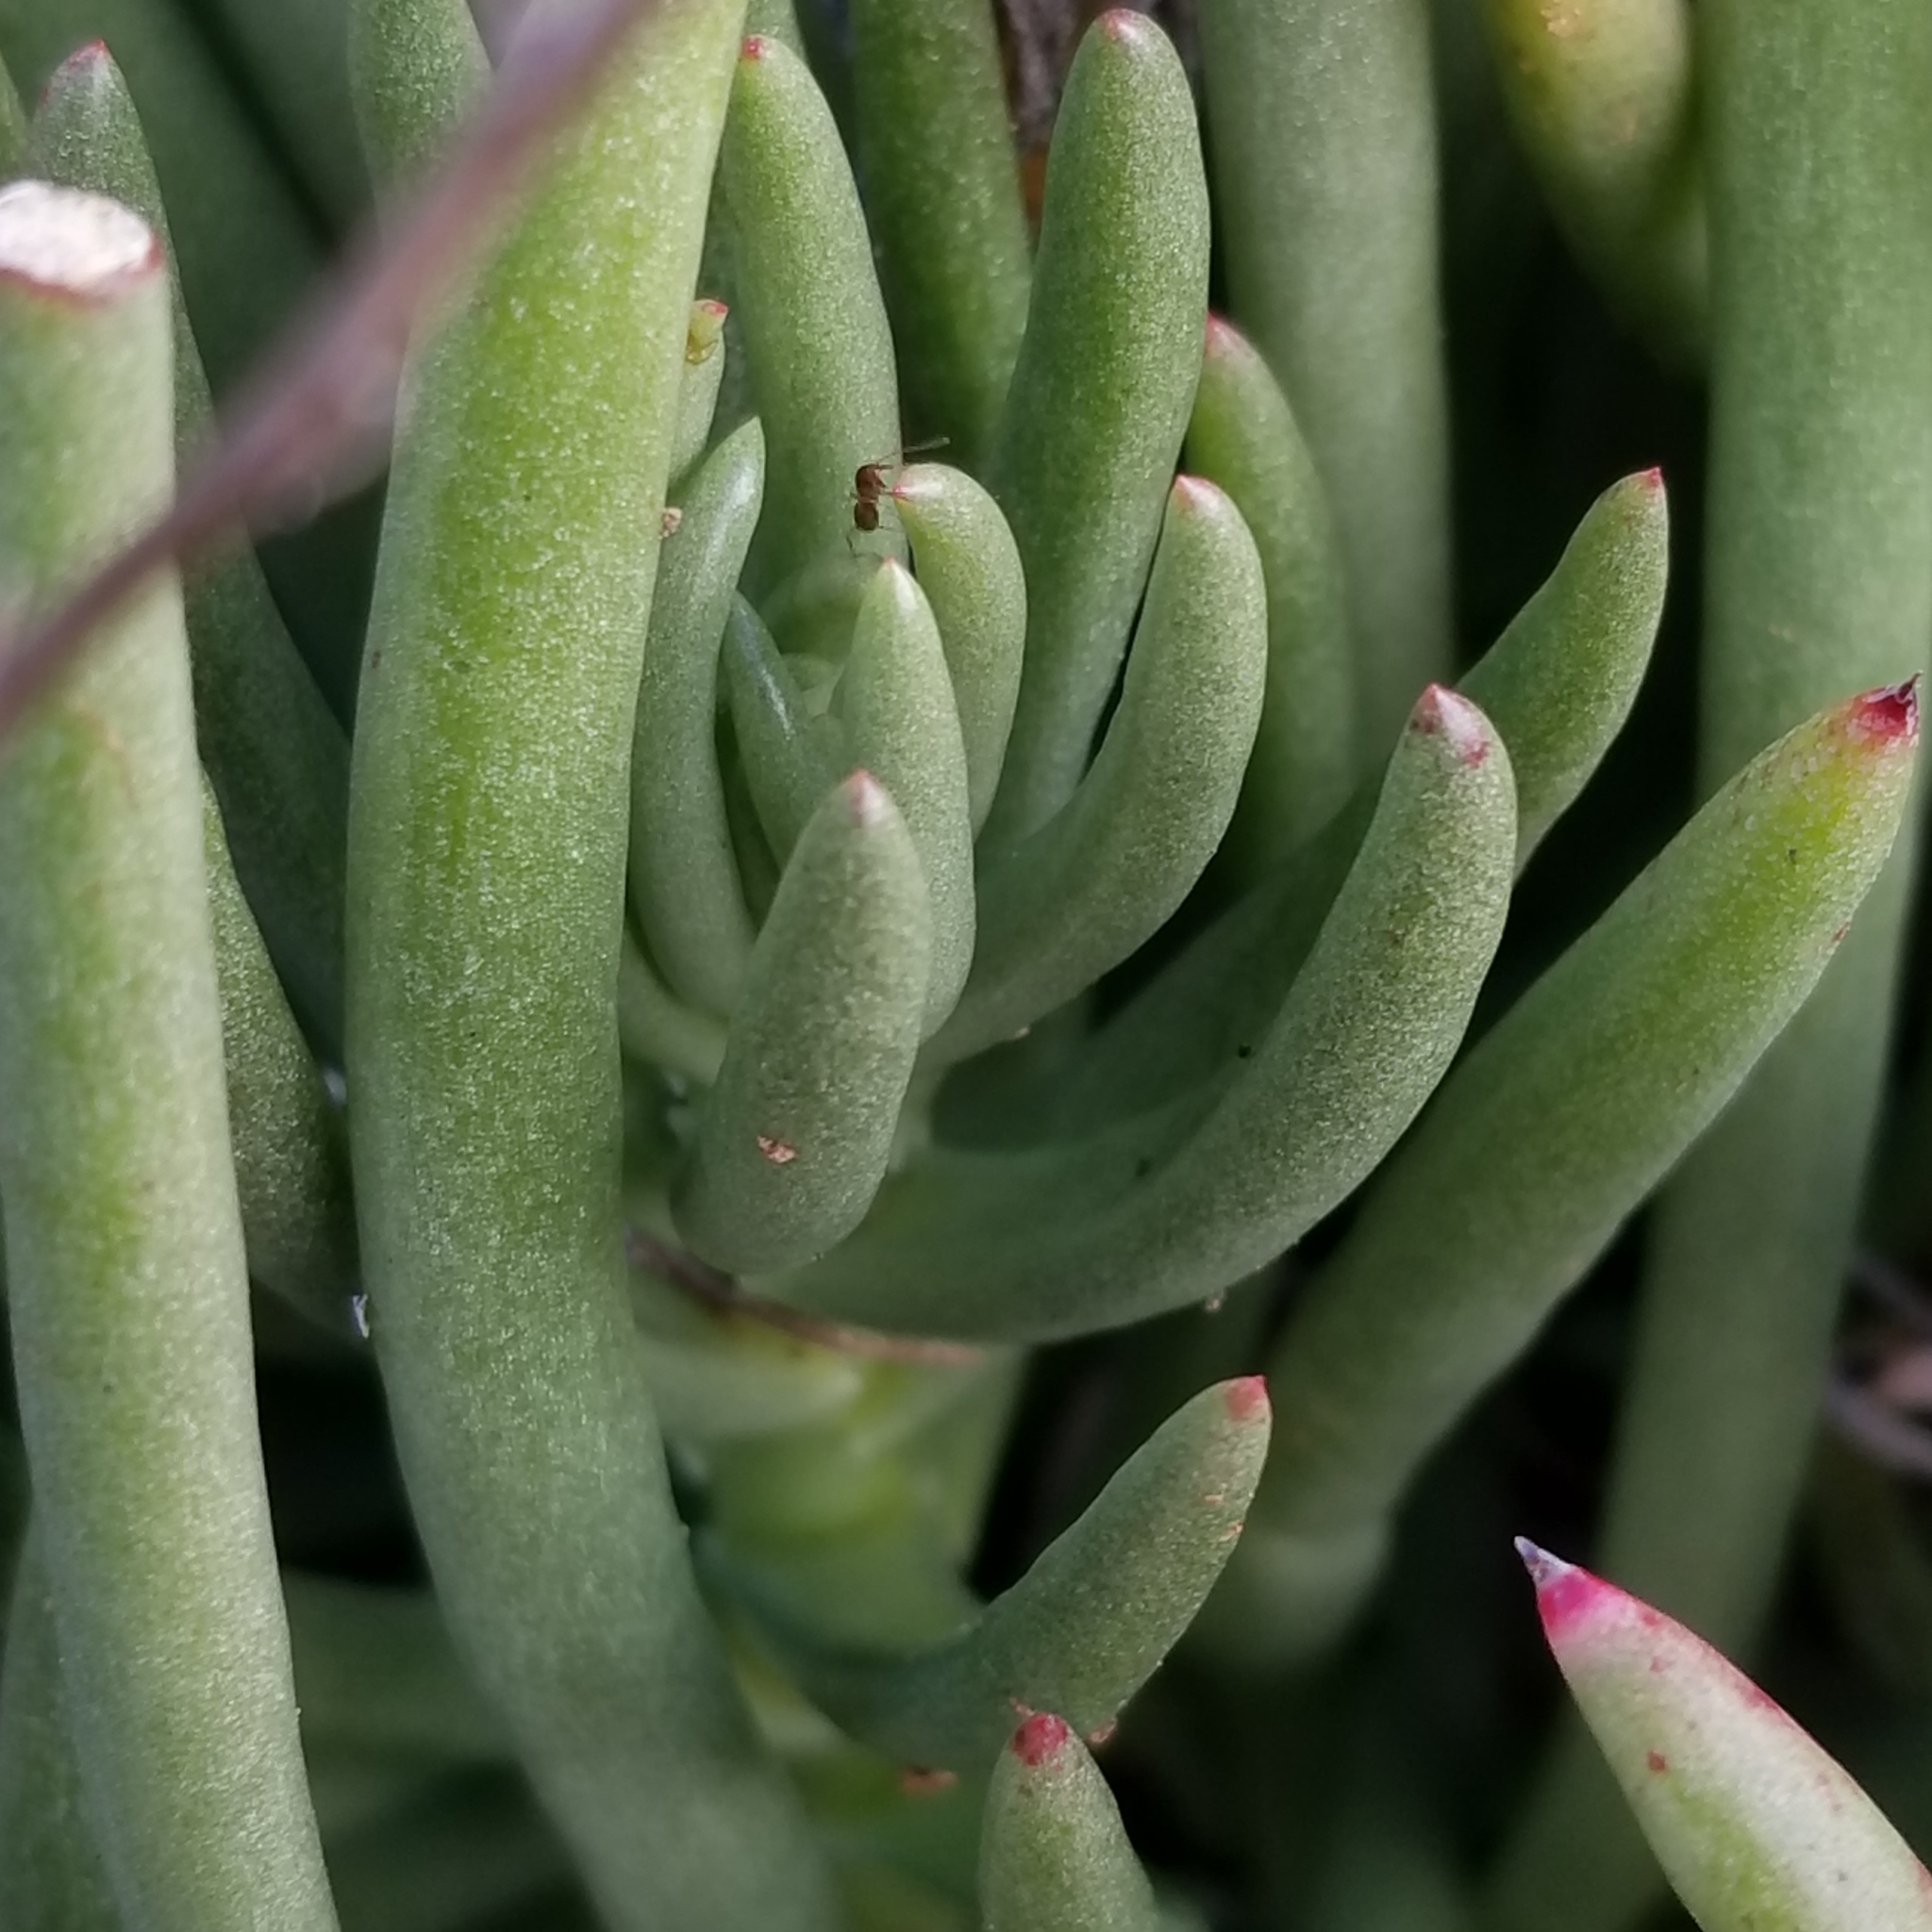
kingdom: Plantae
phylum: Tracheophyta
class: Magnoliopsida
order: Saxifragales
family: Crassulaceae
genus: Dudleya
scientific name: Dudleya edulis
